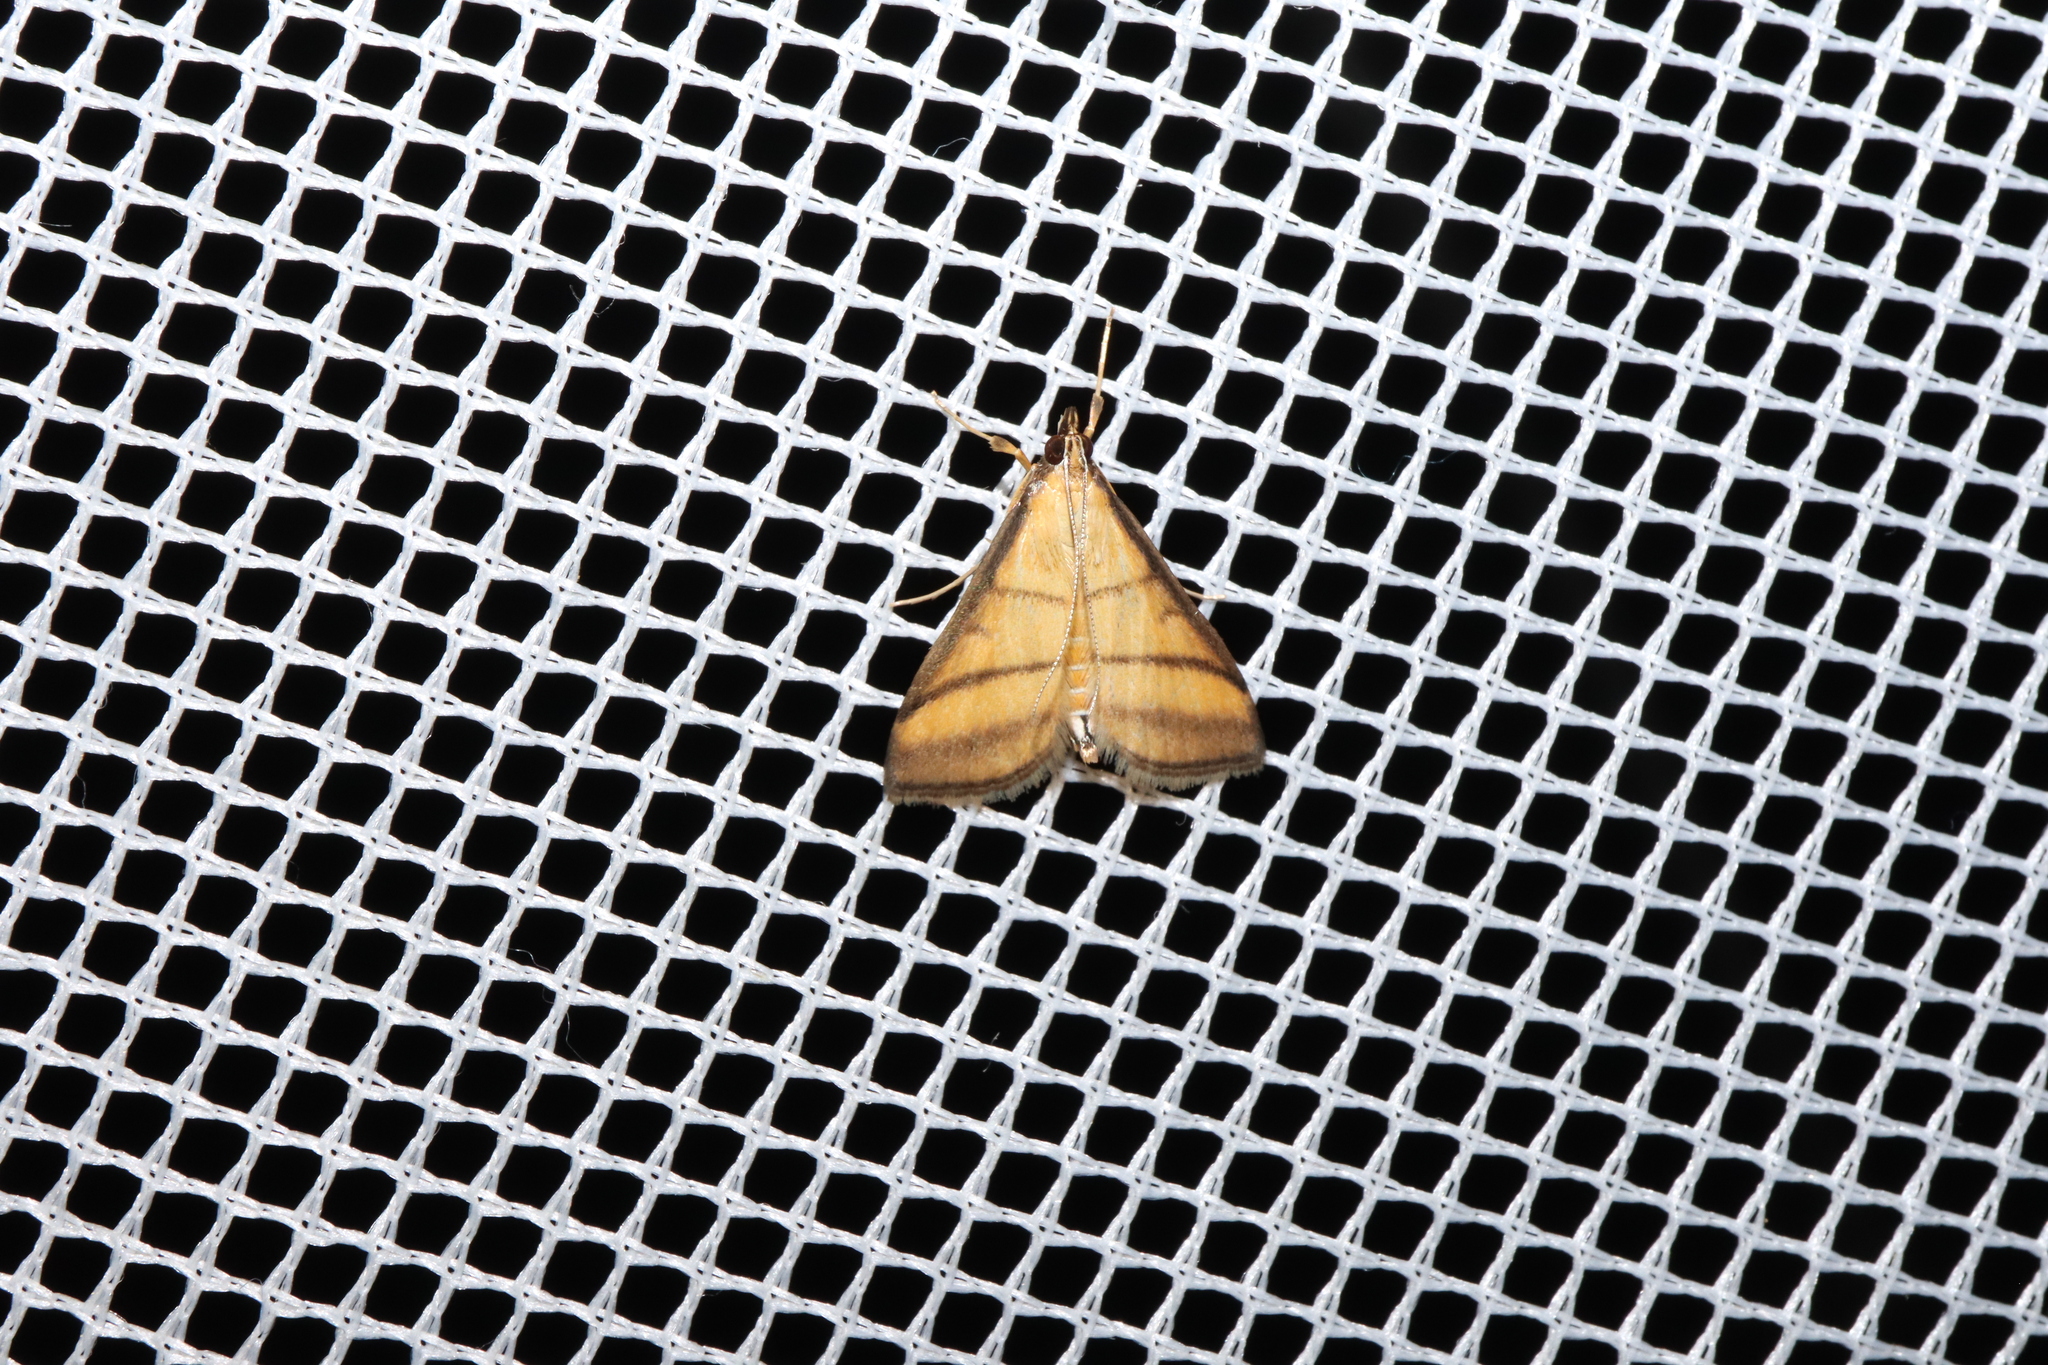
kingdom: Animalia
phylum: Arthropoda
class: Insecta
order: Lepidoptera
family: Crambidae
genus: Cnaphalocrocis
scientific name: Cnaphalocrocis medinalis
